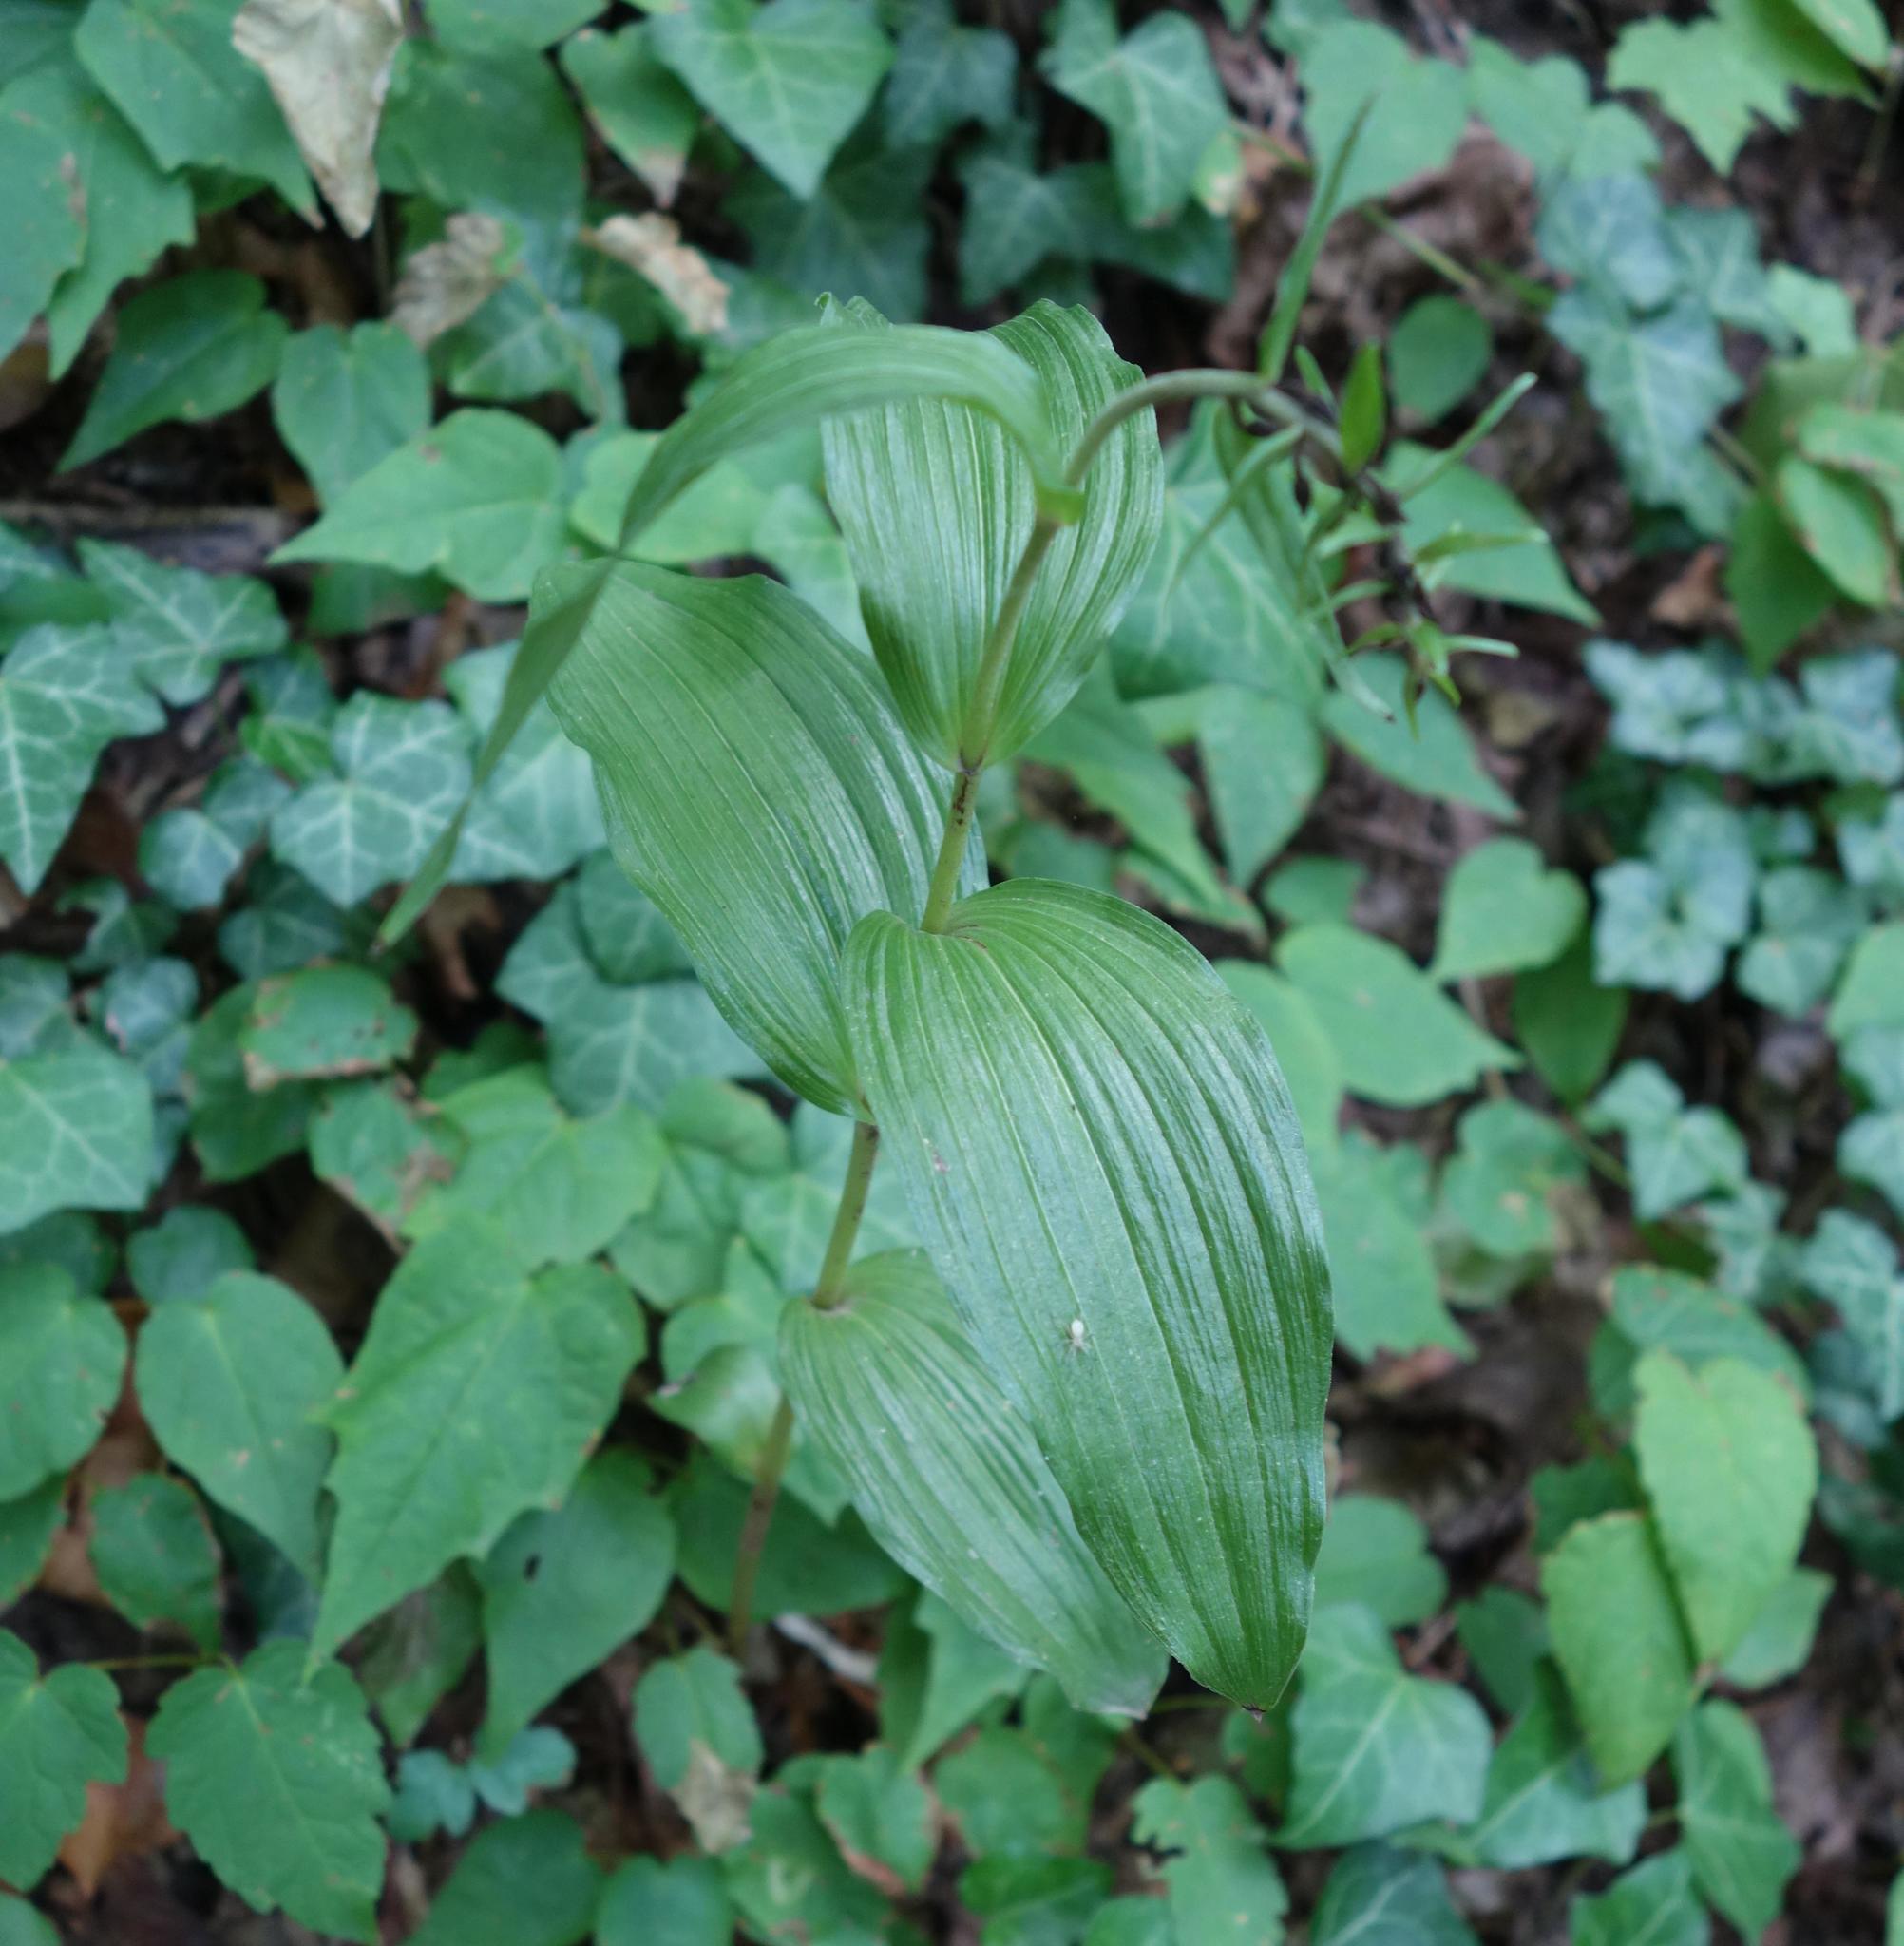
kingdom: Plantae
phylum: Tracheophyta
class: Liliopsida
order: Asparagales
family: Orchidaceae
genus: Epipactis
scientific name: Epipactis helleborine
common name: Broad-leaved helleborine
